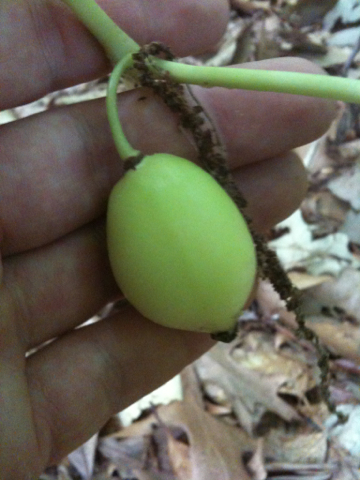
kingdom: Plantae
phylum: Tracheophyta
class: Magnoliopsida
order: Ranunculales
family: Berberidaceae
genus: Podophyllum
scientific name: Podophyllum peltatum
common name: Wild mandrake
